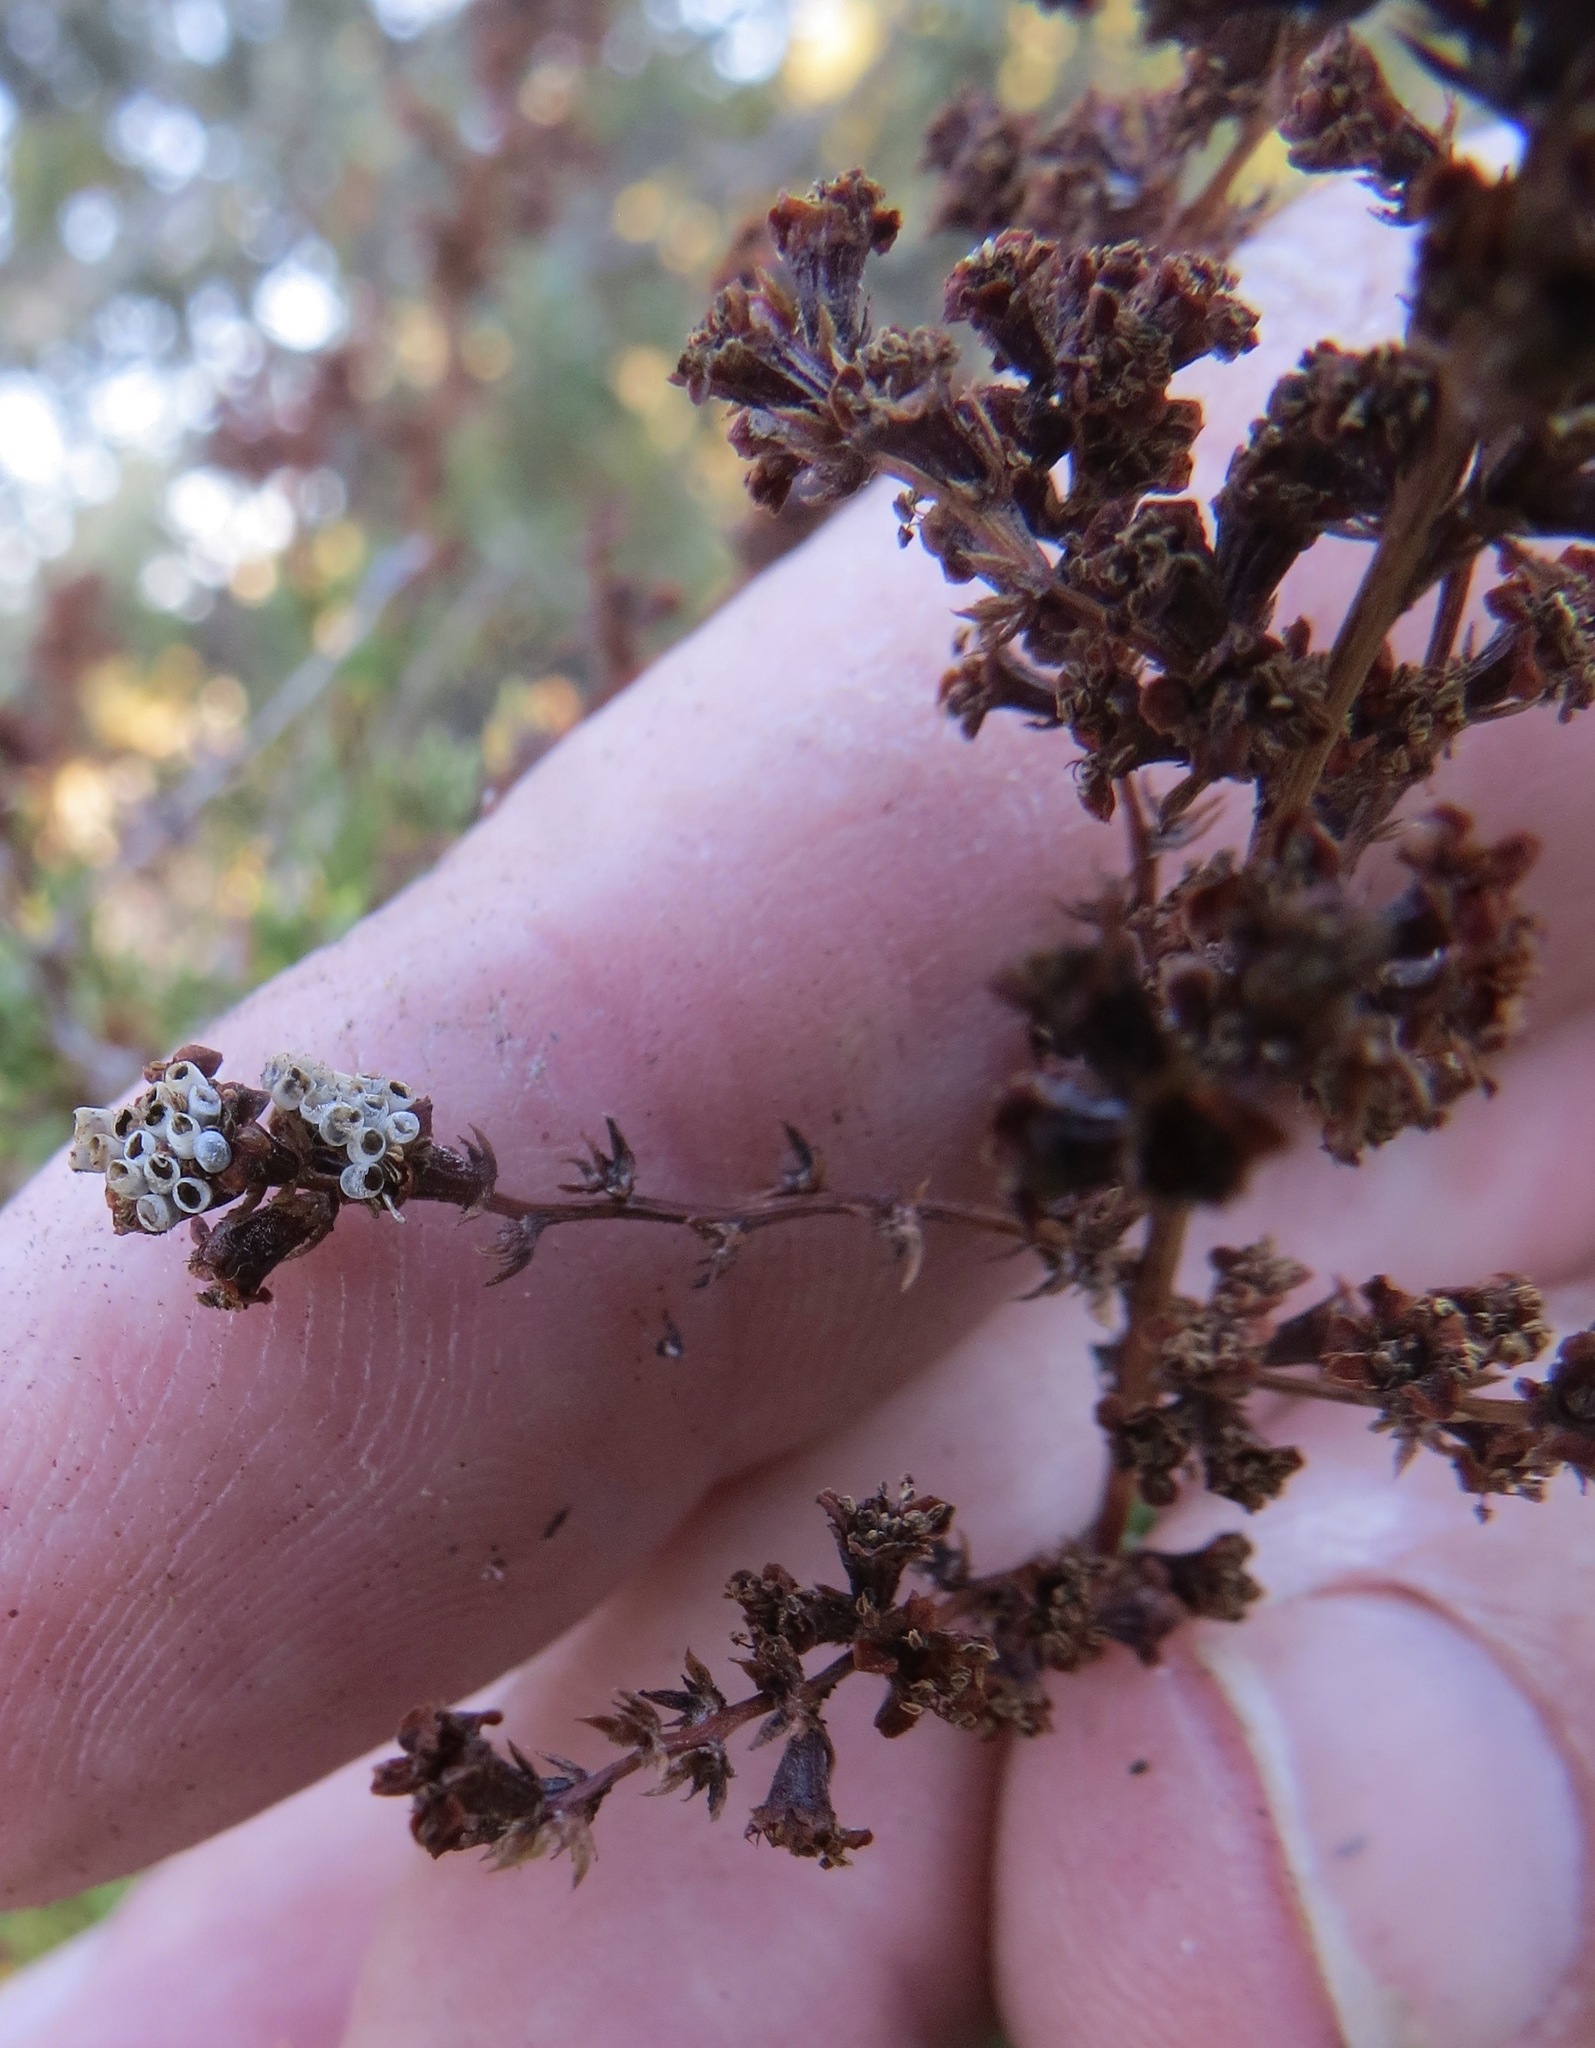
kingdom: Plantae
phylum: Tracheophyta
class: Magnoliopsida
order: Rosales
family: Rosaceae
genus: Adenostoma
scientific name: Adenostoma fasciculatum
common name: Chamise
